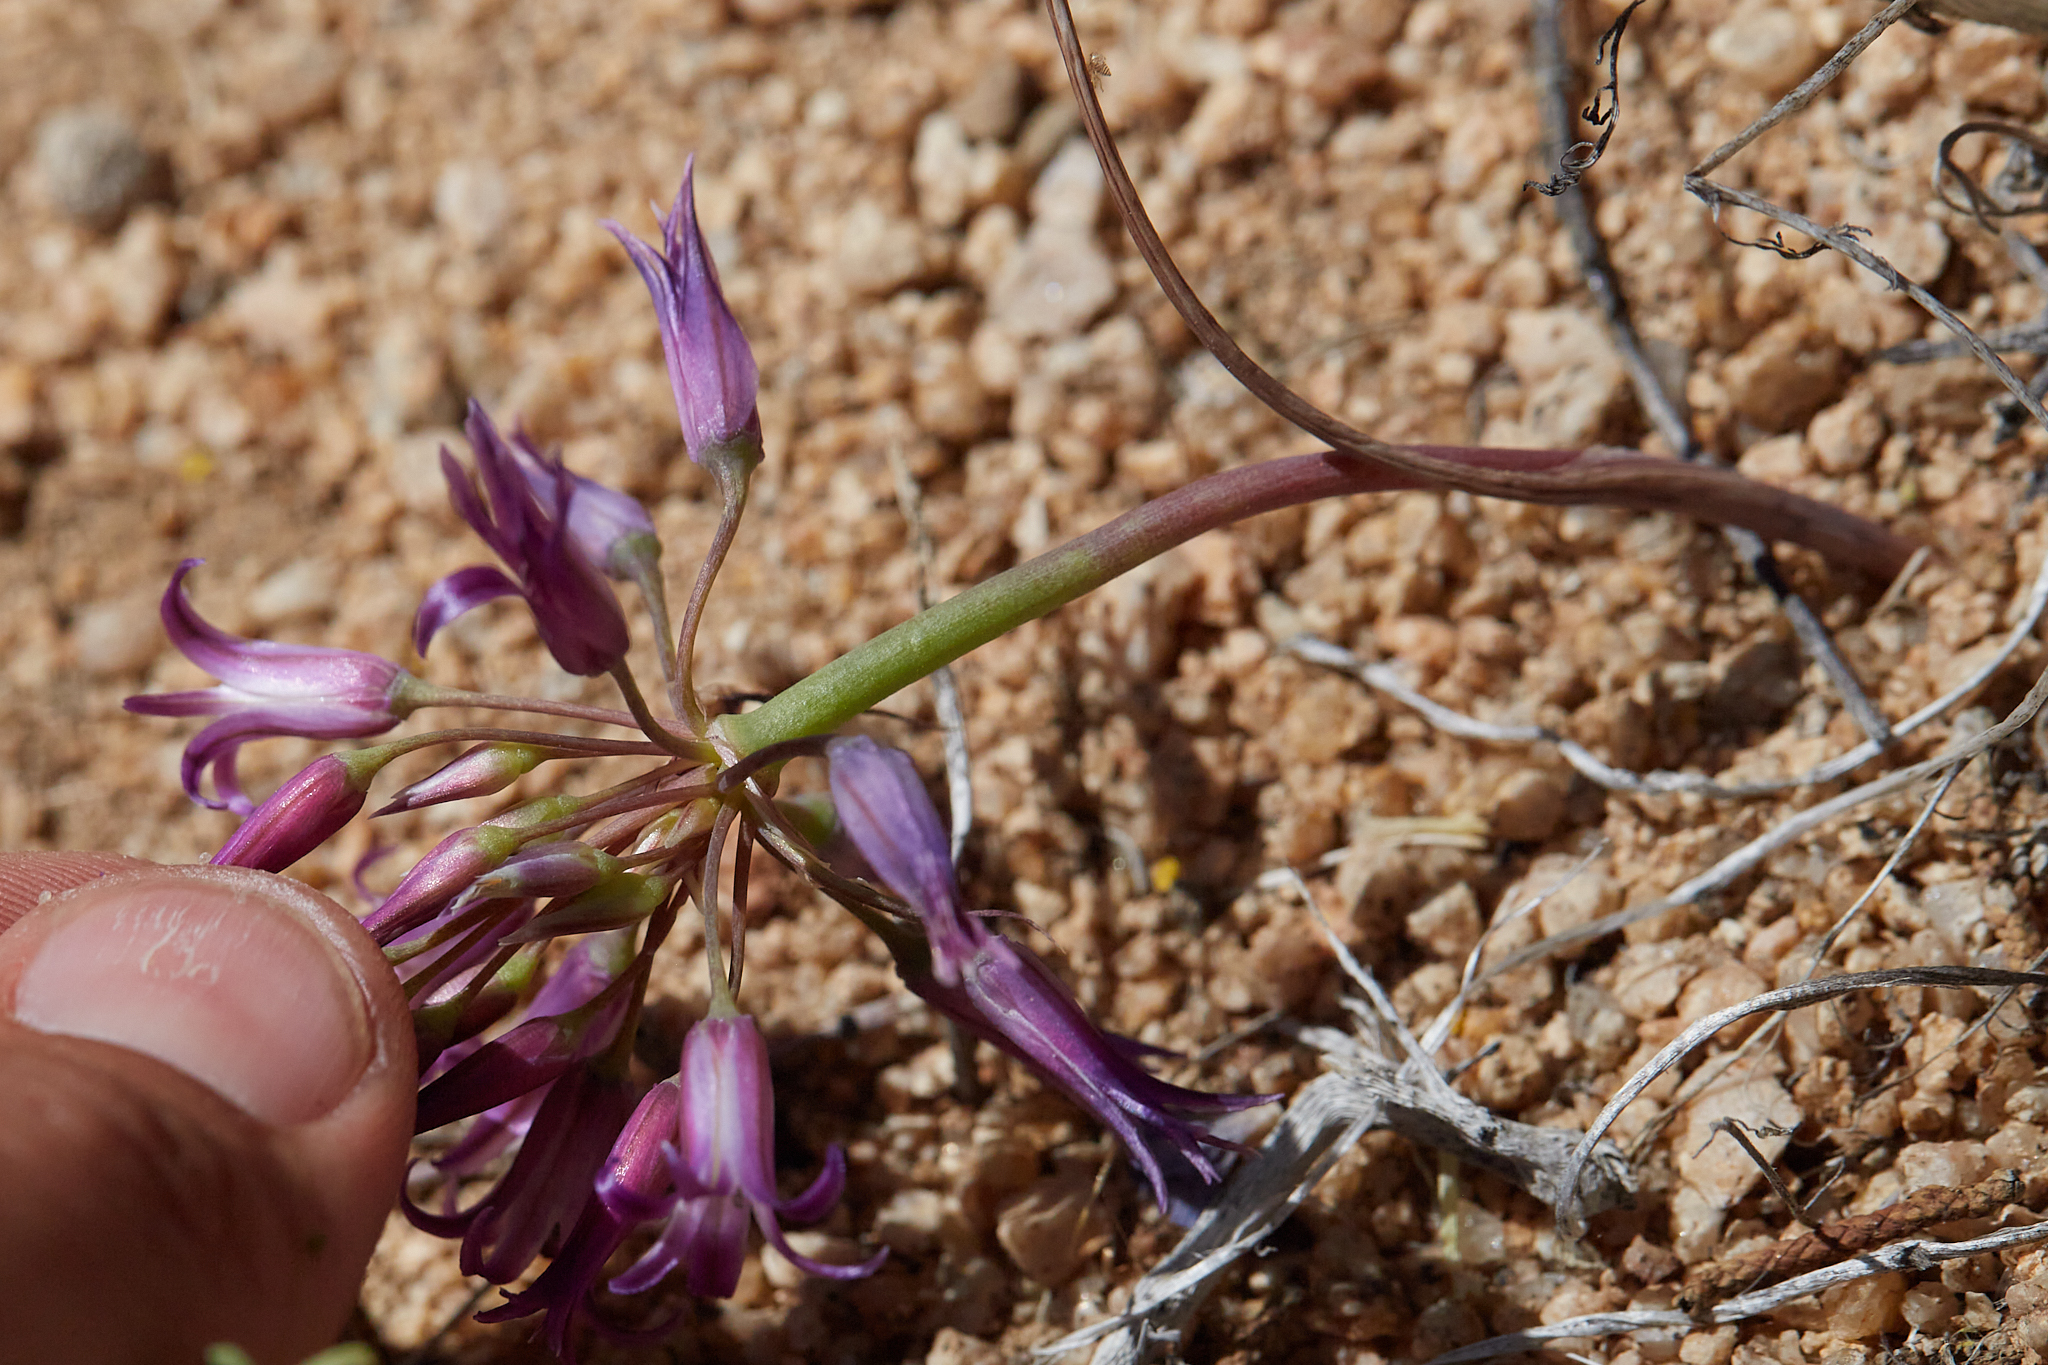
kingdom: Plantae
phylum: Tracheophyta
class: Liliopsida
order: Asparagales
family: Amaryllidaceae
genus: Allium
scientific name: Allium fimbriatum
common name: Fringed onion
